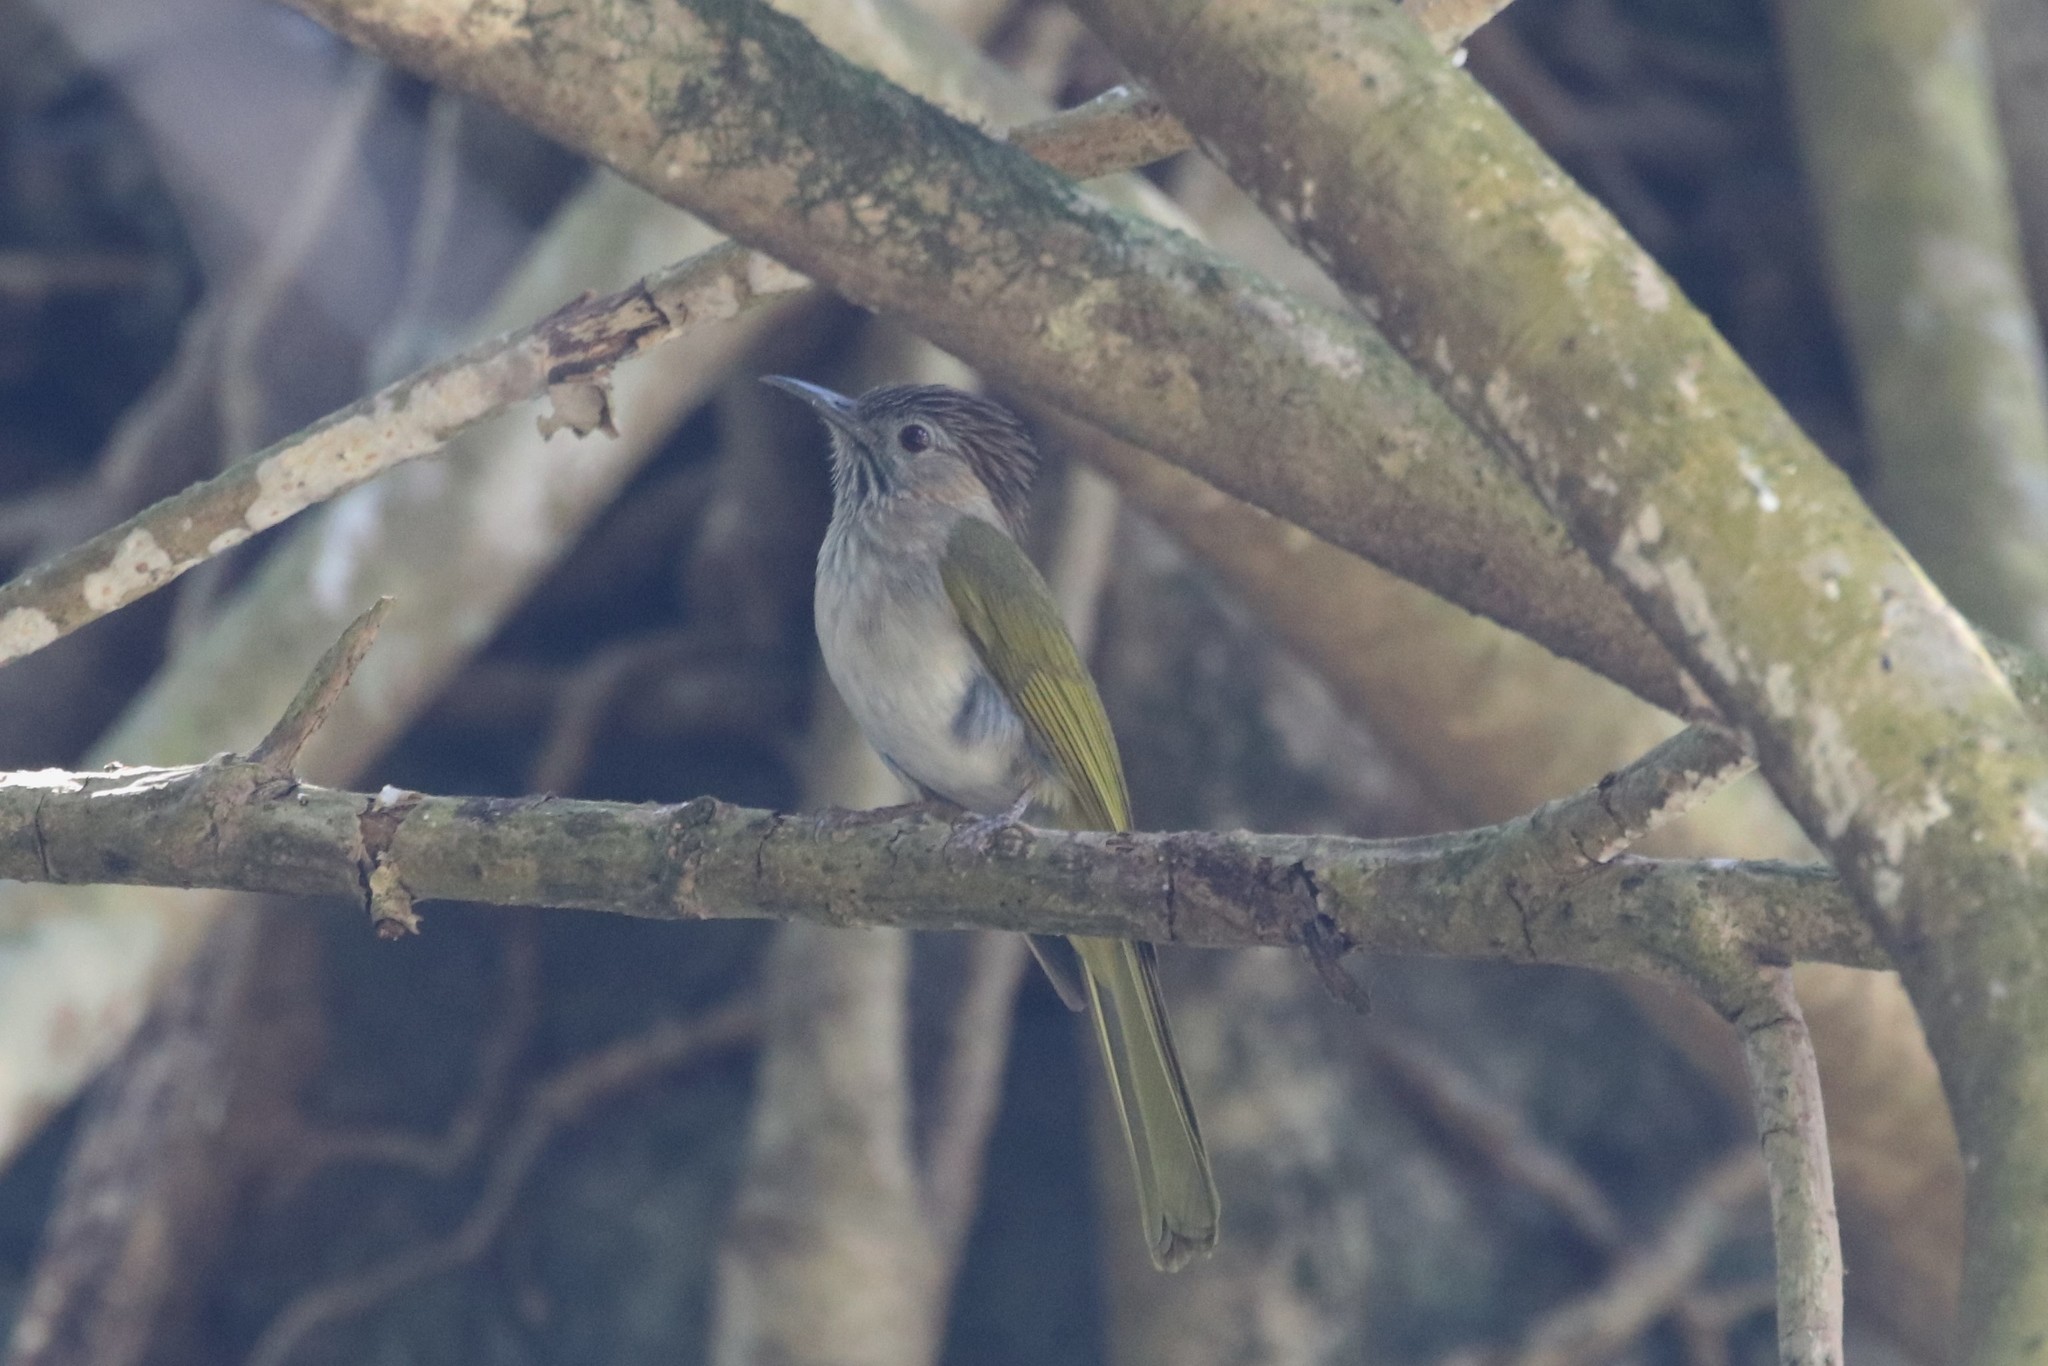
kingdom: Animalia
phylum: Chordata
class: Aves
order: Passeriformes
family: Pycnonotidae
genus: Ixos
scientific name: Ixos mcclellandii
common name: Mountain bulbul
